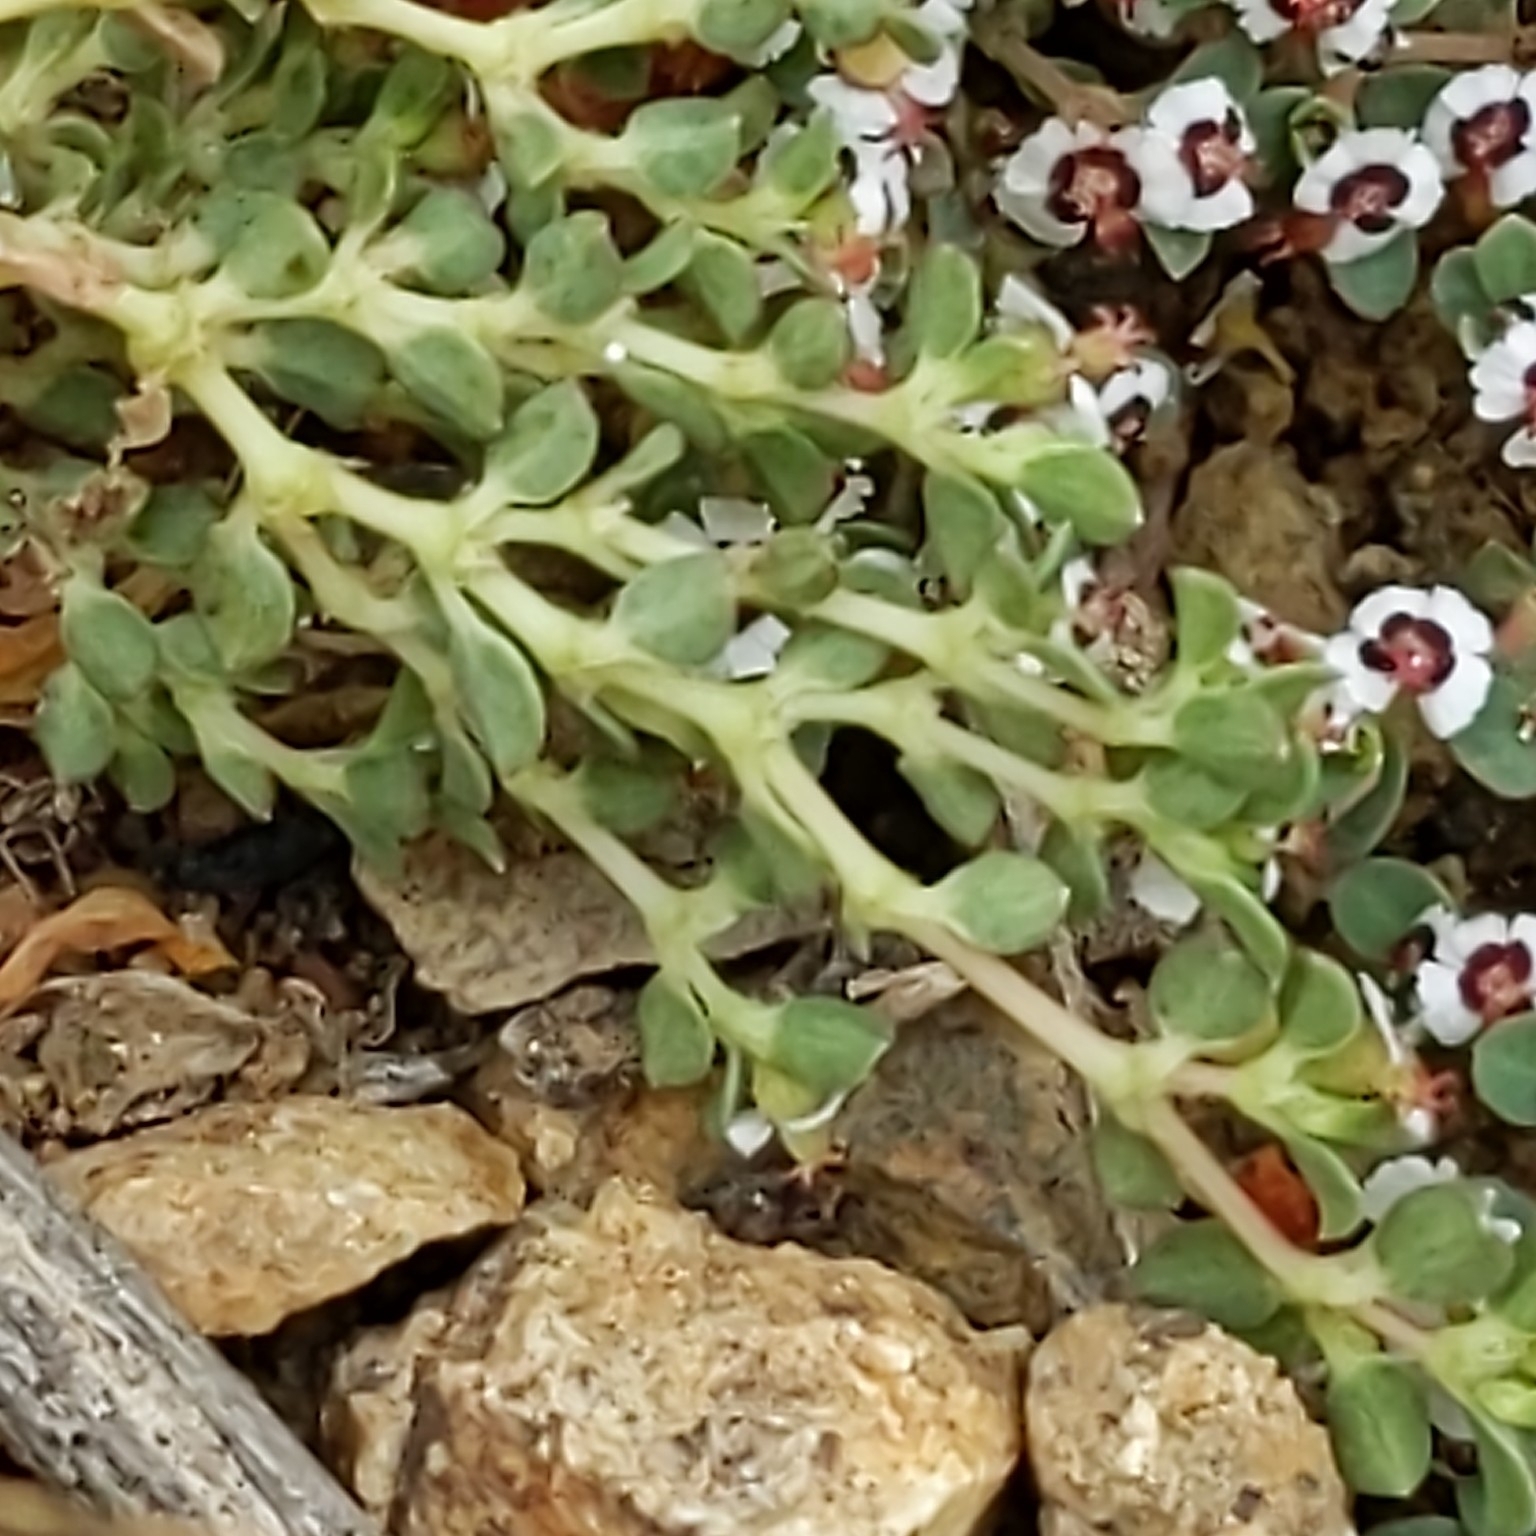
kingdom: Plantae
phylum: Tracheophyta
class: Magnoliopsida
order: Malpighiales
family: Euphorbiaceae
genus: Euphorbia
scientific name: Euphorbia polycarpa
